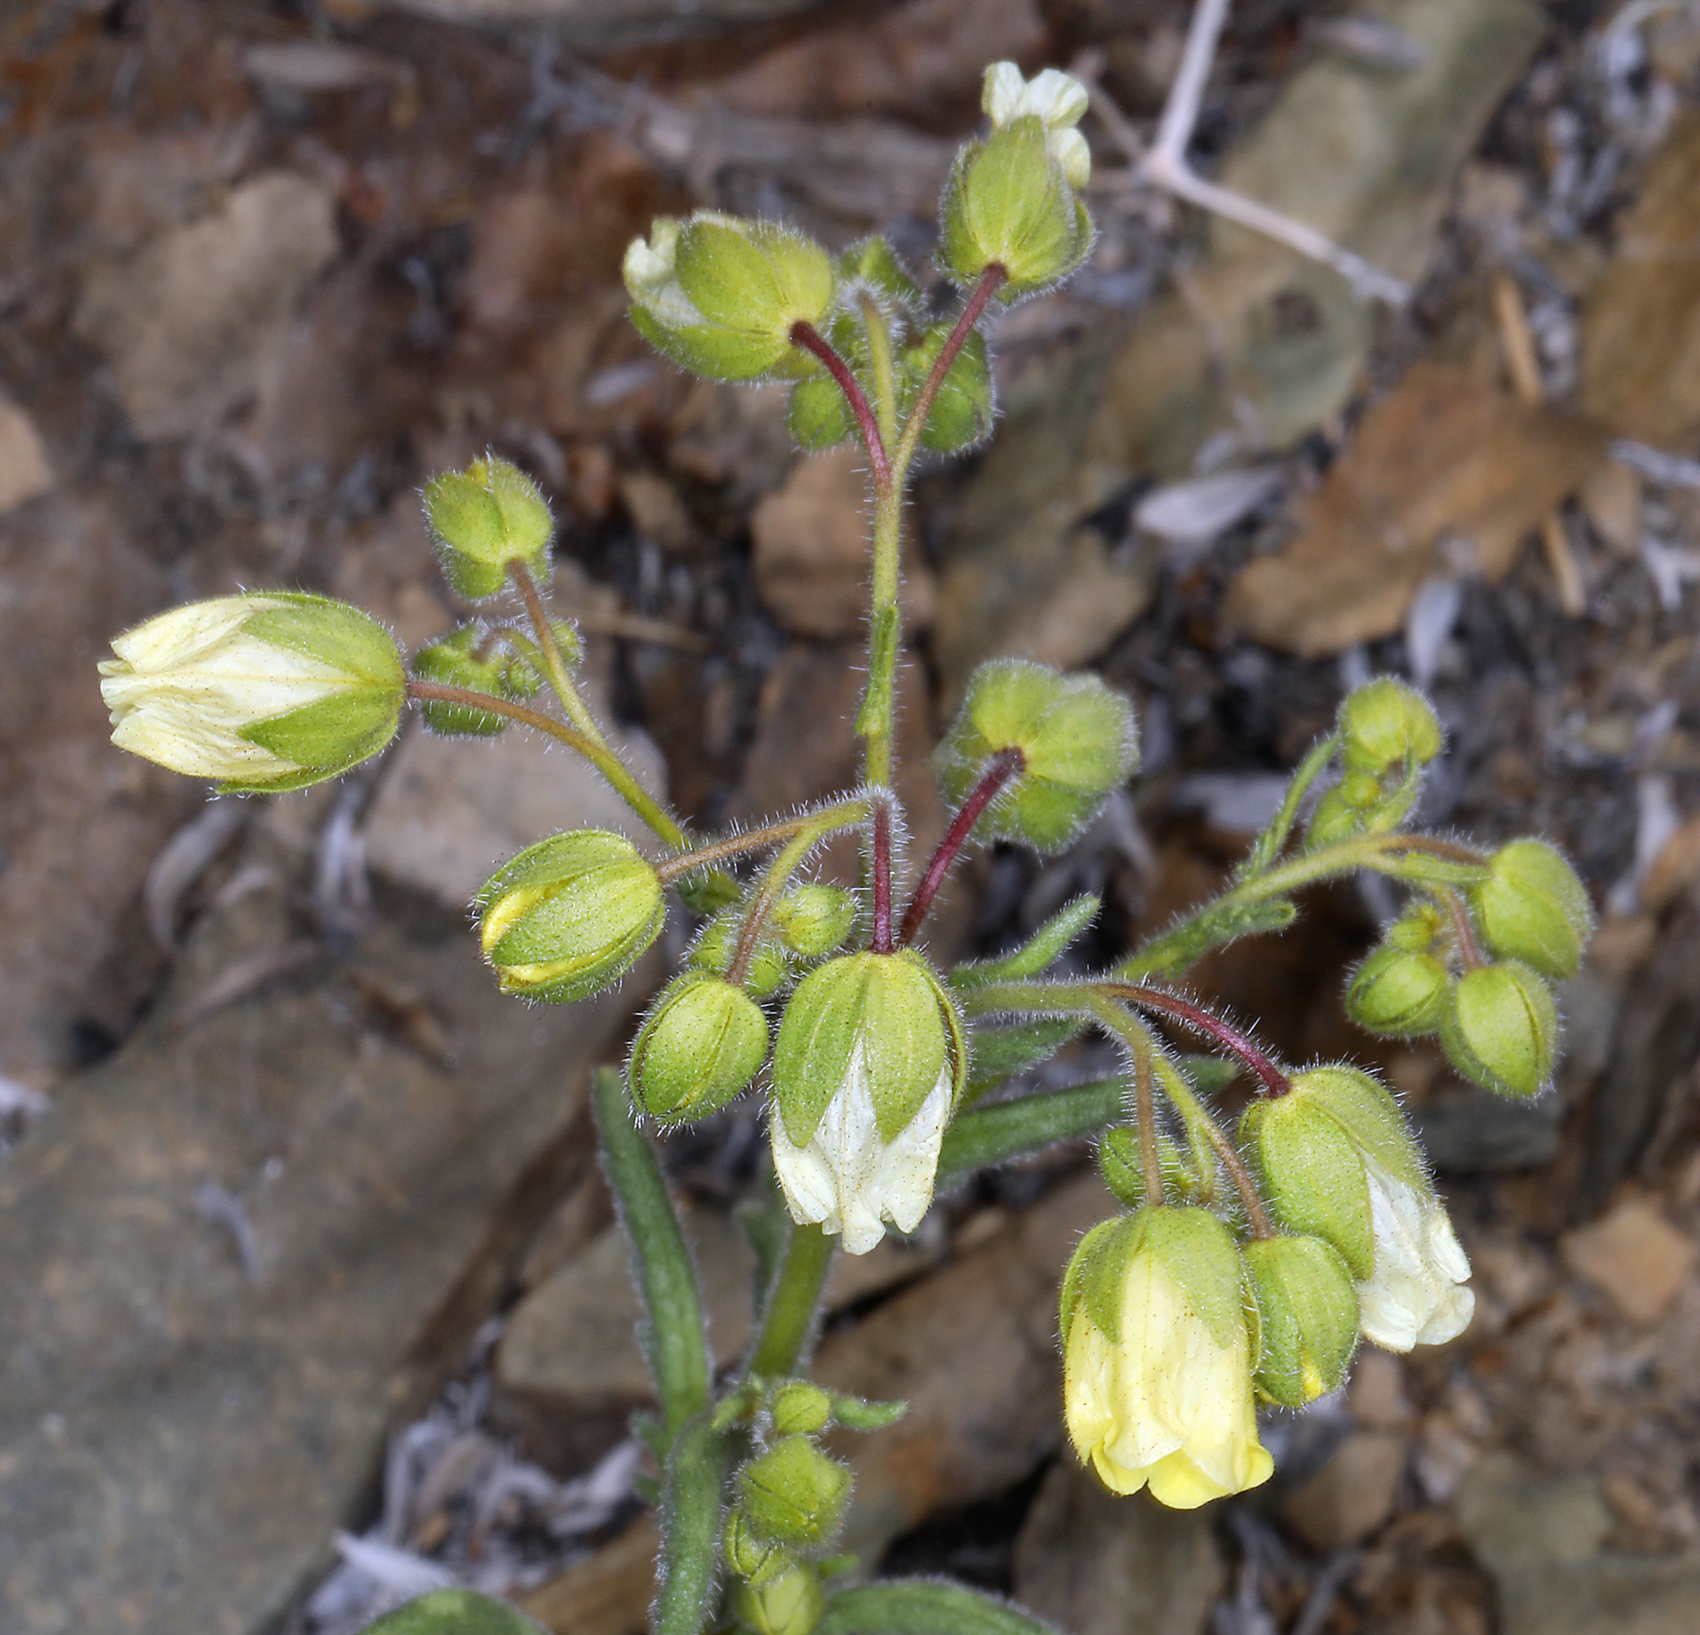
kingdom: Plantae
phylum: Tracheophyta
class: Magnoliopsida
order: Boraginales
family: Hydrophyllaceae
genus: Emmenanthe
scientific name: Emmenanthe penduliflora
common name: Whispering-bells
